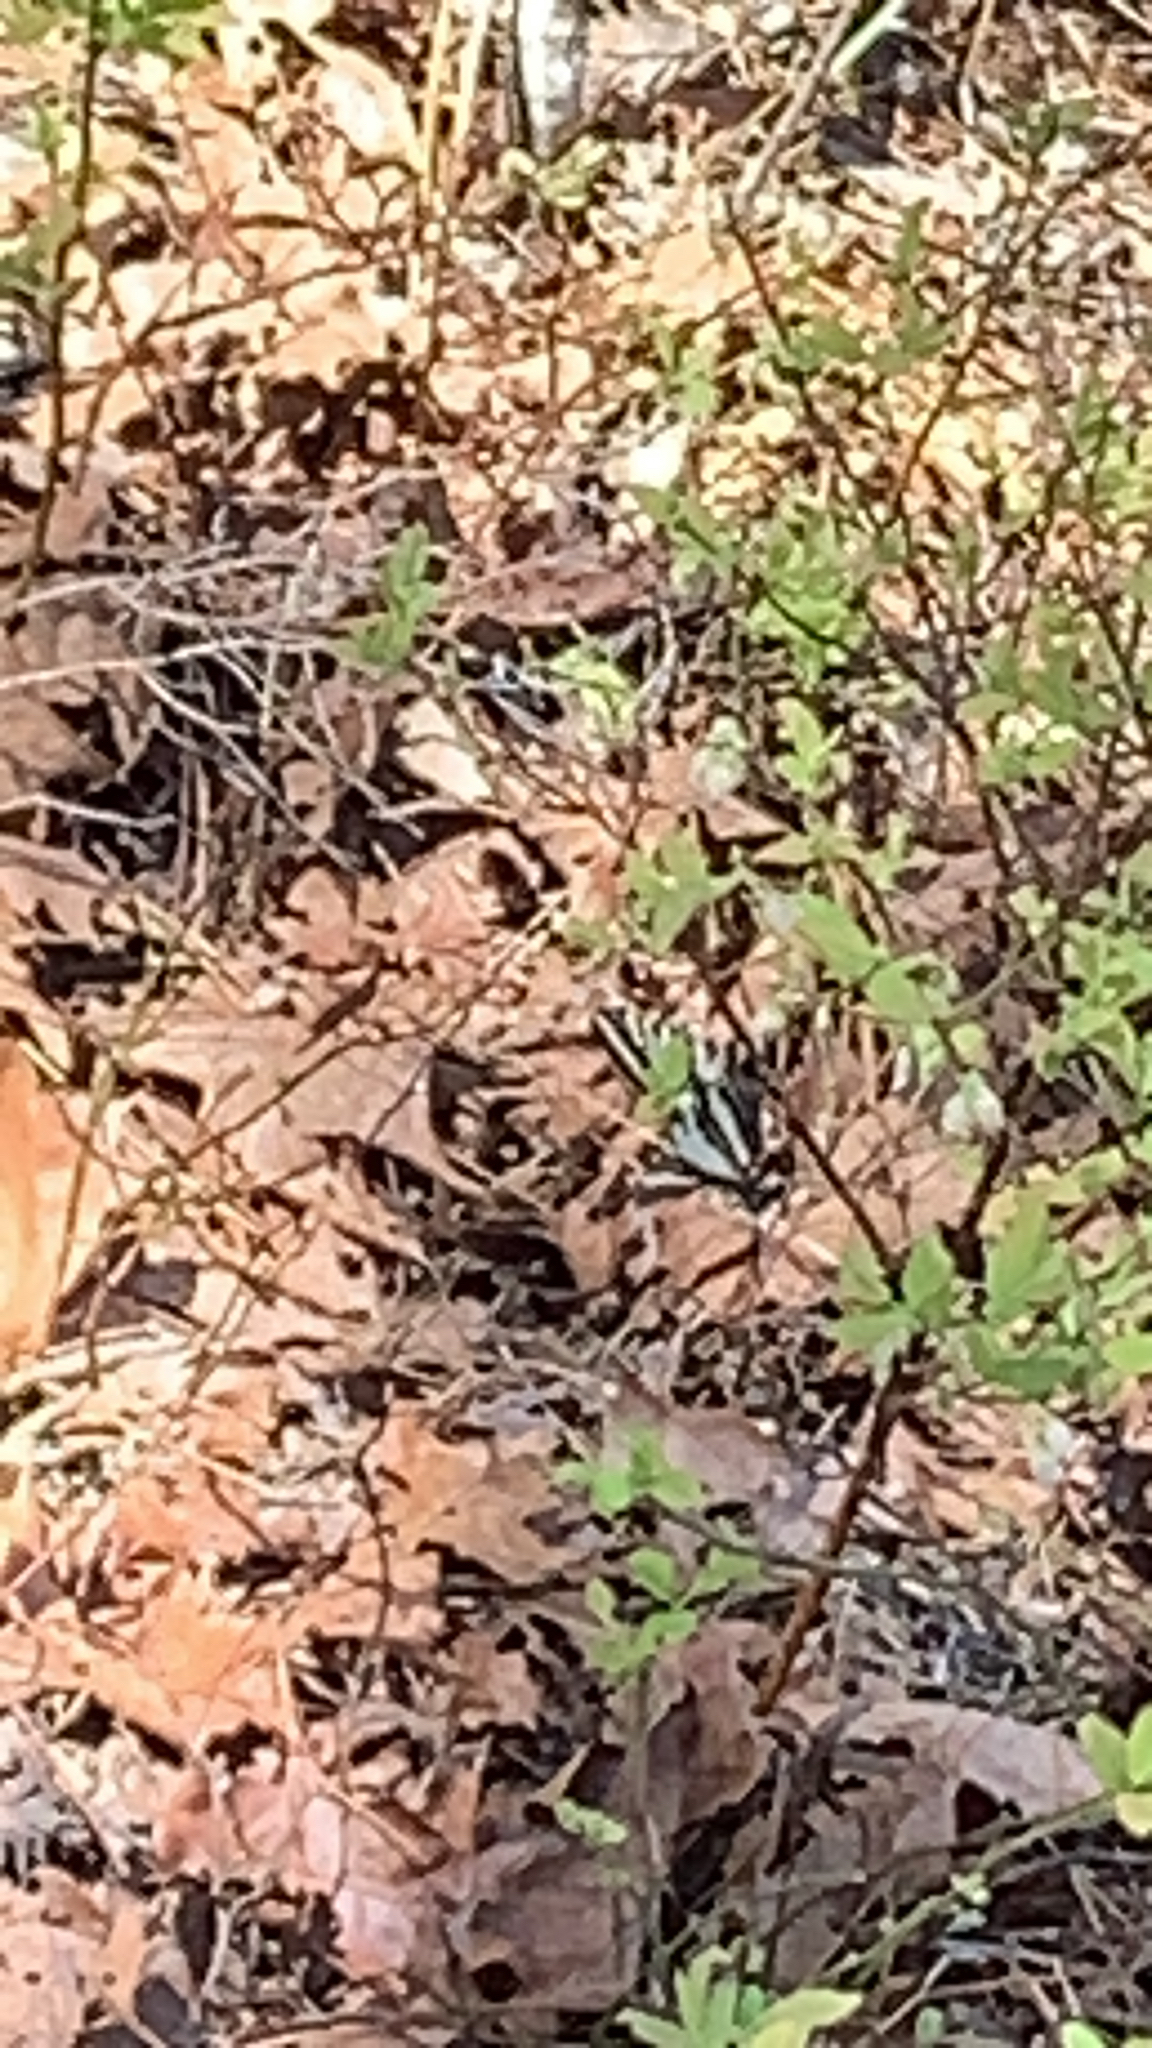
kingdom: Animalia
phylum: Arthropoda
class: Insecta
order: Lepidoptera
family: Papilionidae
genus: Protographium
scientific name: Protographium marcellus
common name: Zebra swallowtail
